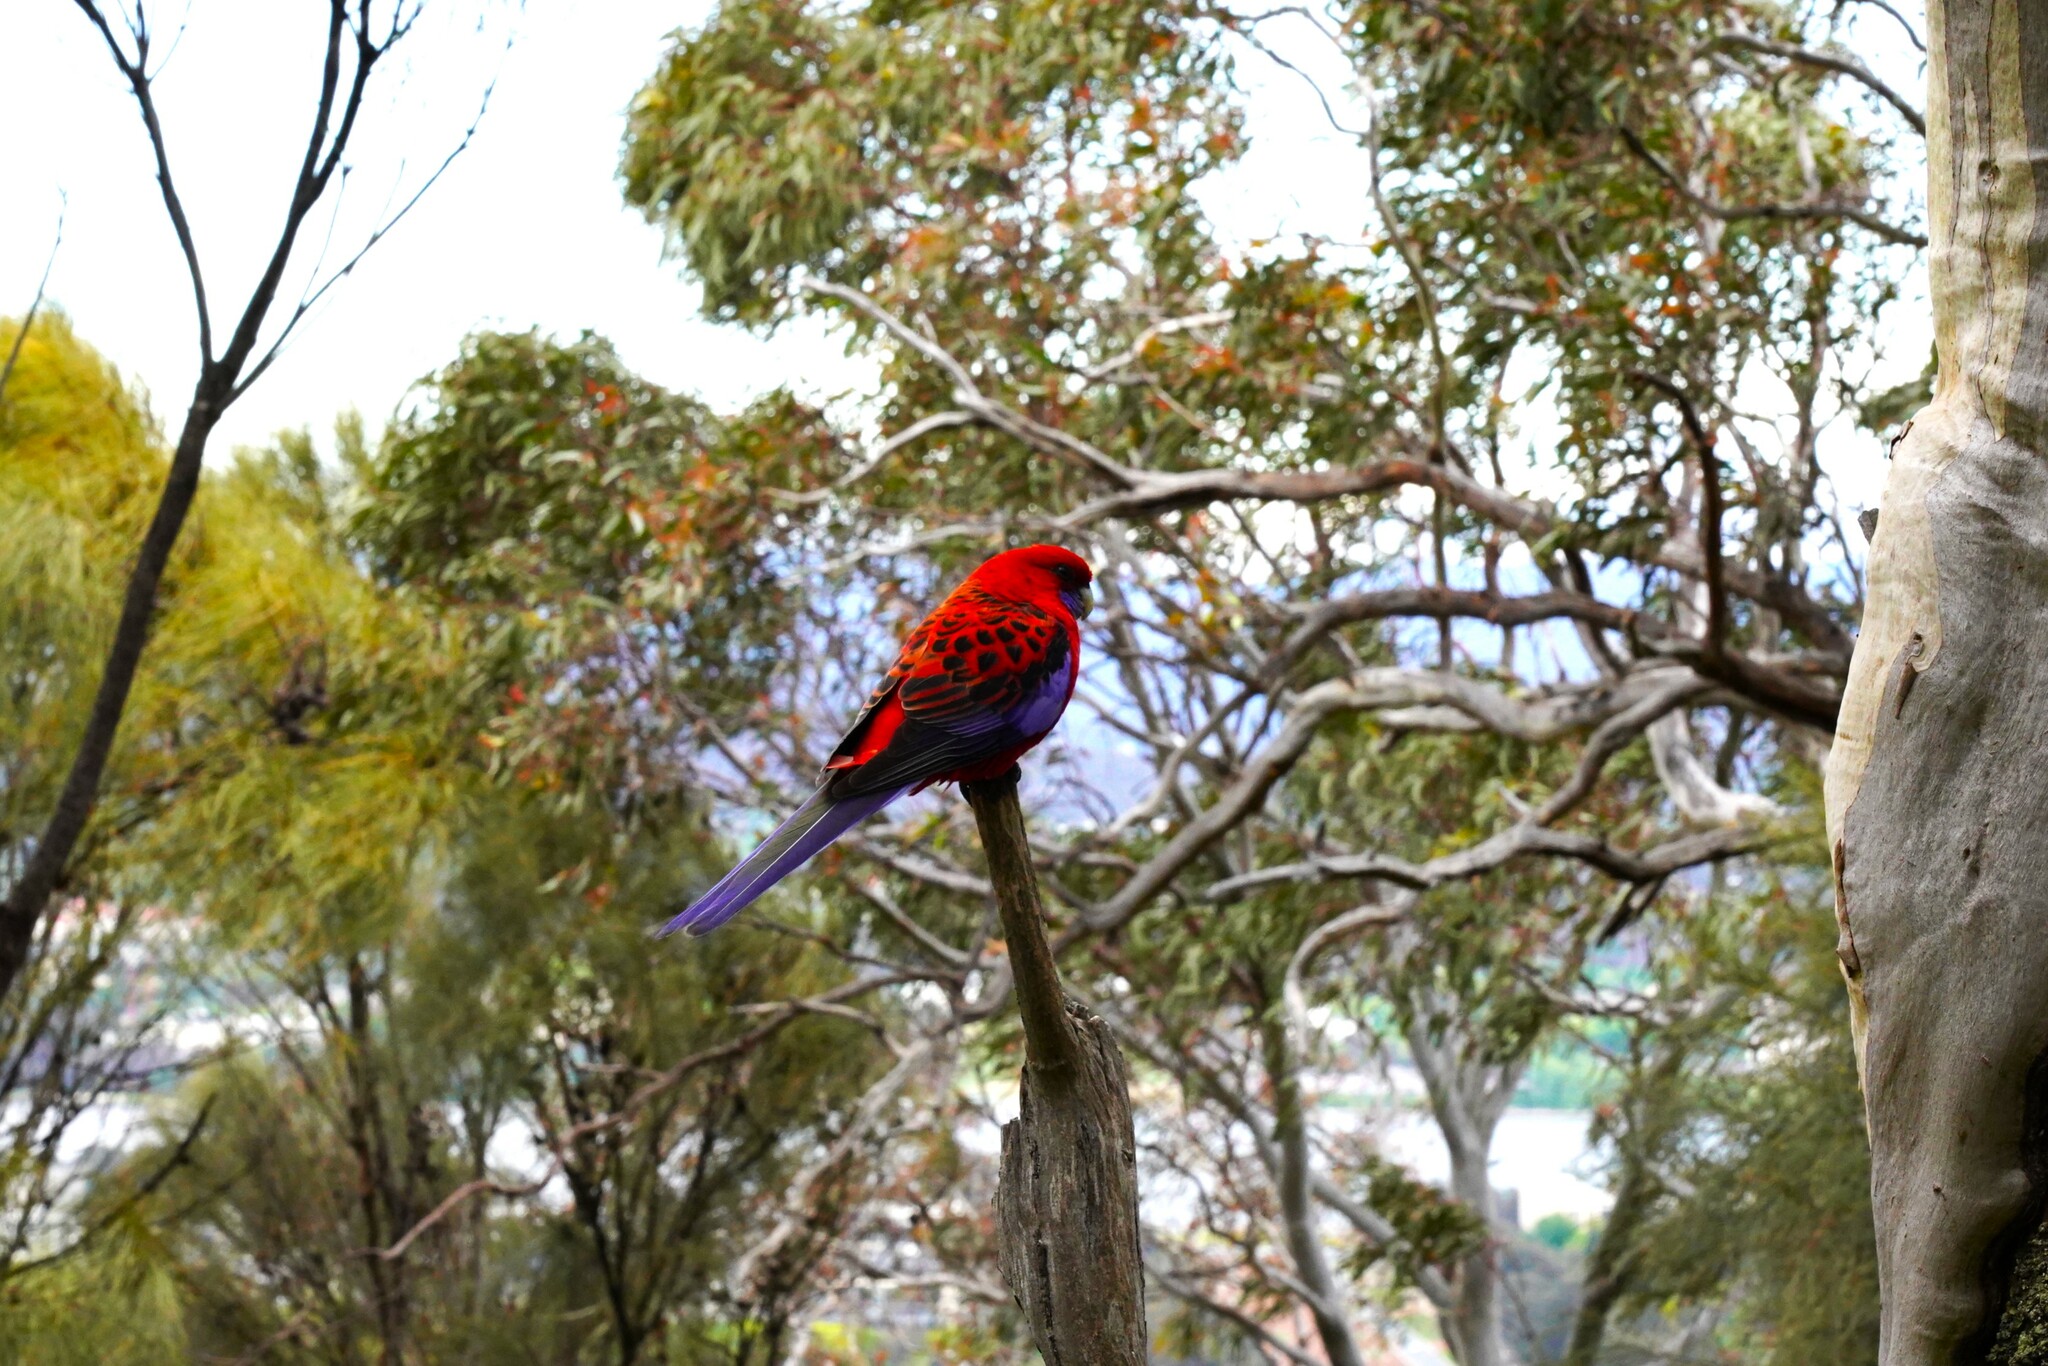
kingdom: Animalia
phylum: Chordata
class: Aves
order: Psittaciformes
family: Psittacidae
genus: Platycercus
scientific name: Platycercus elegans
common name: Crimson rosella
